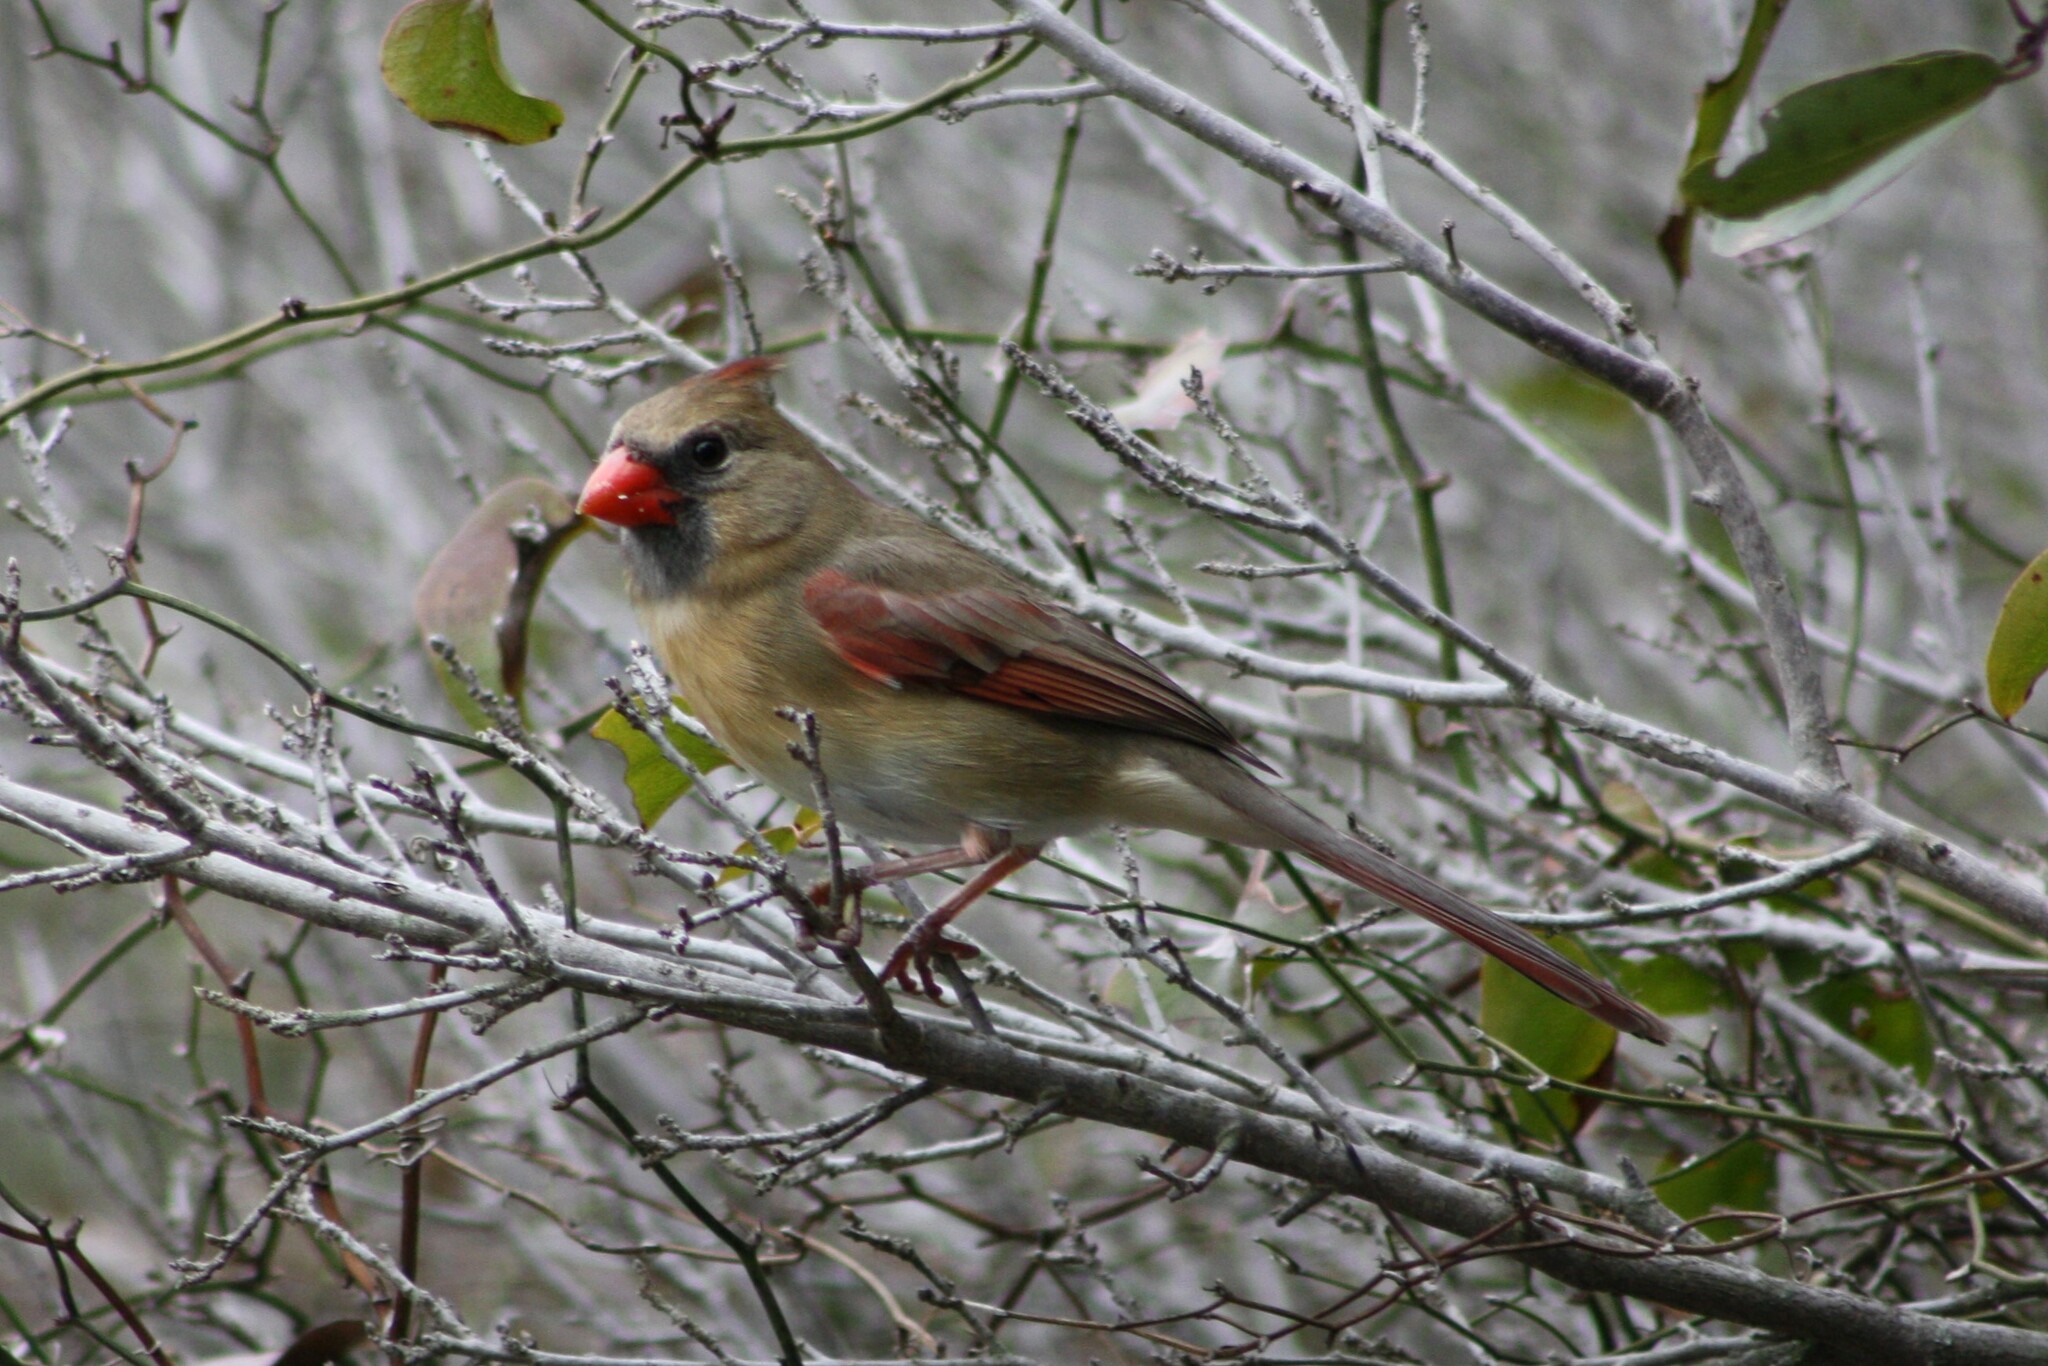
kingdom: Animalia
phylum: Chordata
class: Aves
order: Passeriformes
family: Cardinalidae
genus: Cardinalis
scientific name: Cardinalis cardinalis
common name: Northern cardinal
